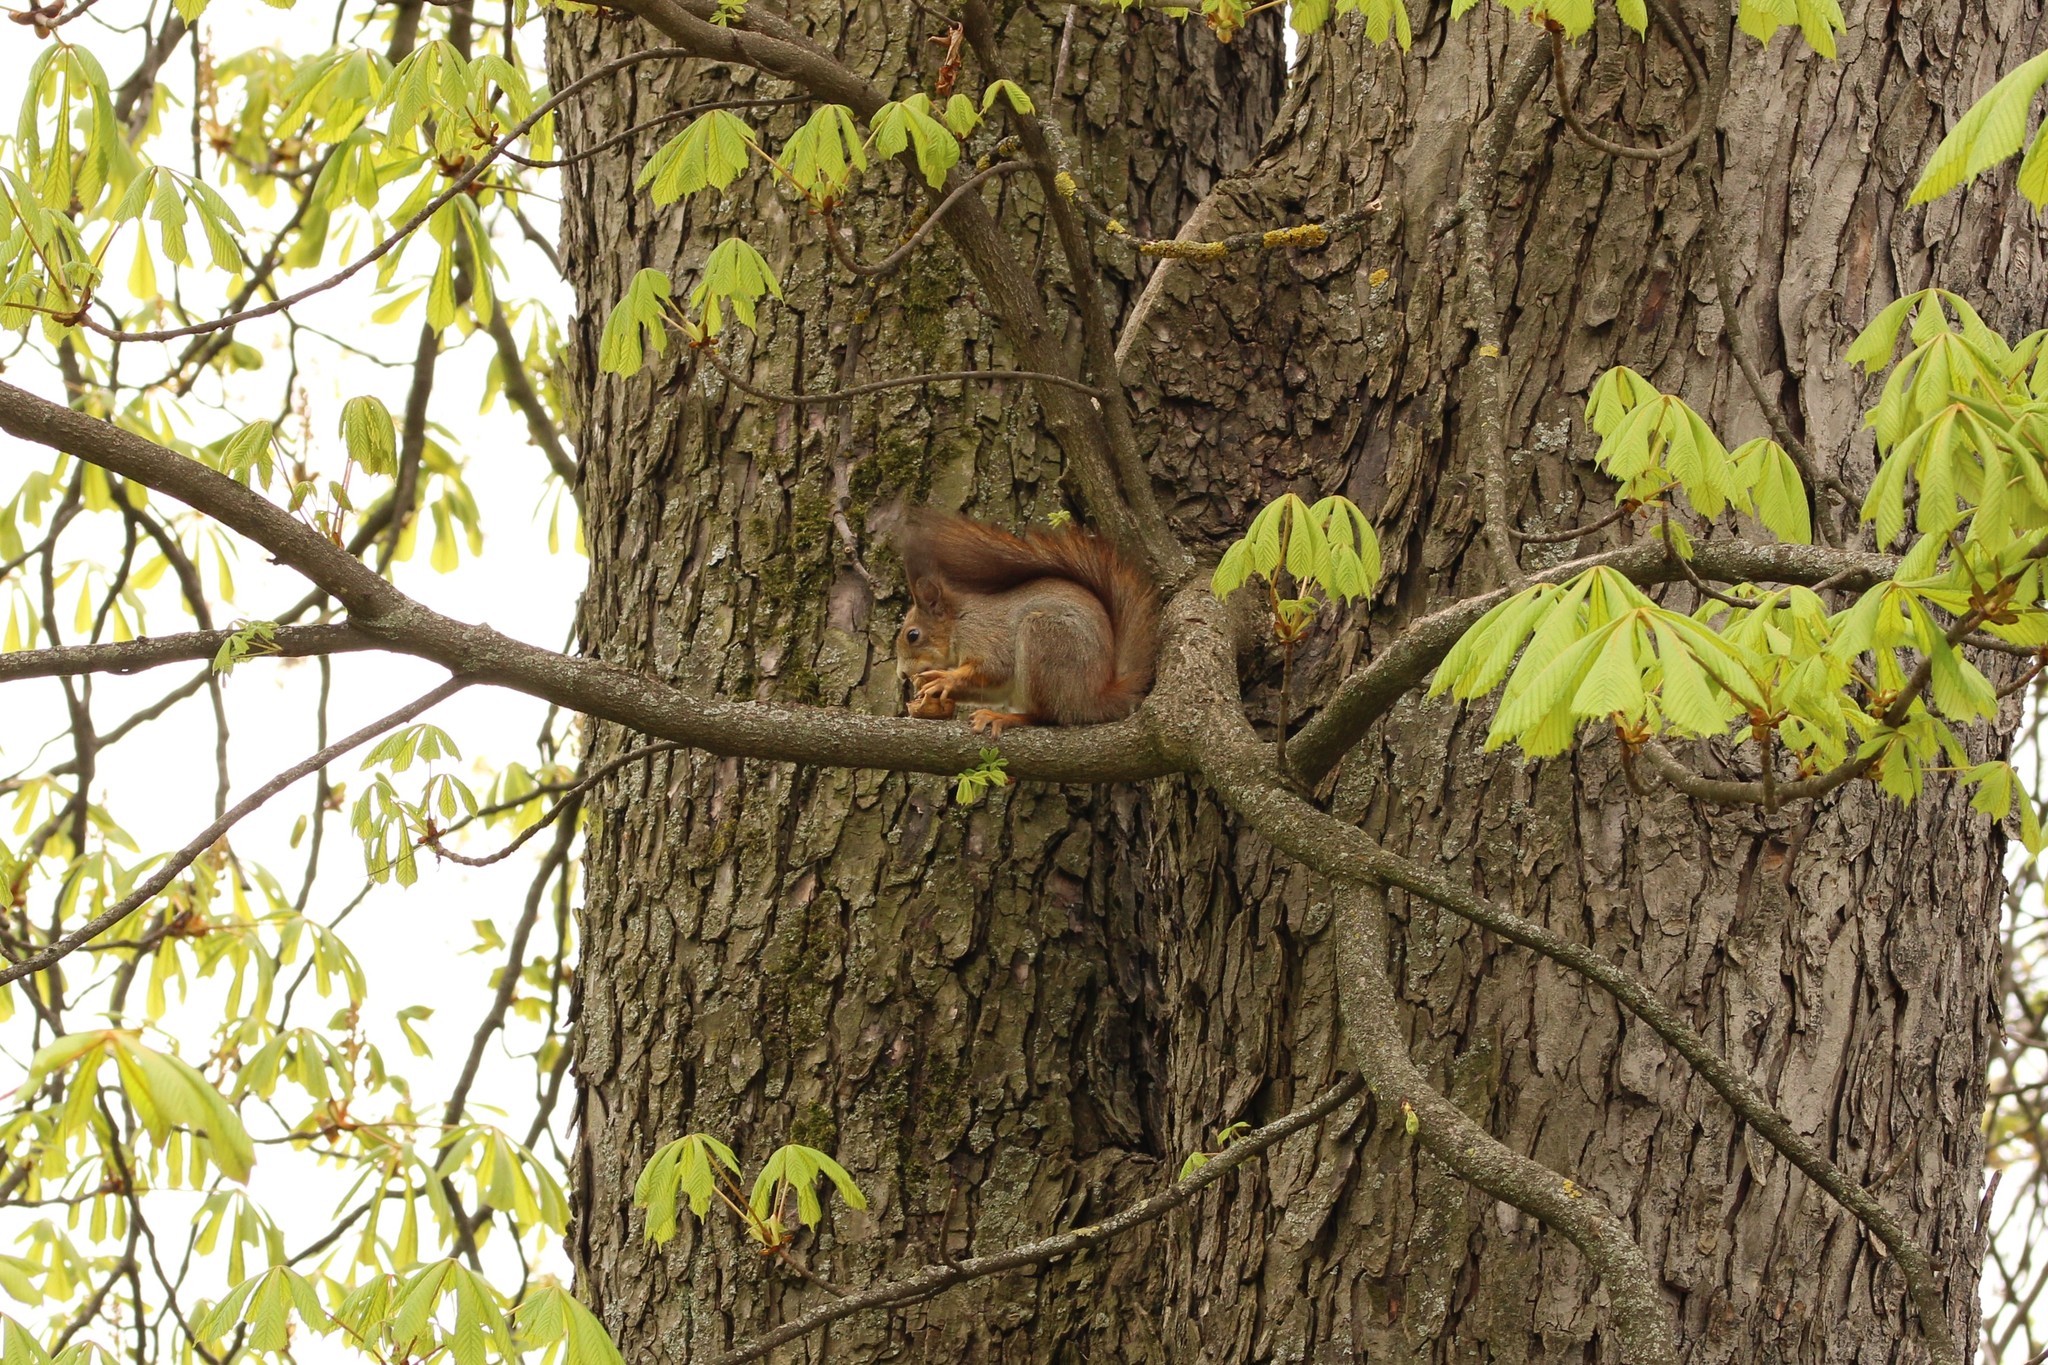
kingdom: Animalia
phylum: Chordata
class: Mammalia
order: Rodentia
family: Sciuridae
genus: Sciurus
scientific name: Sciurus vulgaris
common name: Eurasian red squirrel
